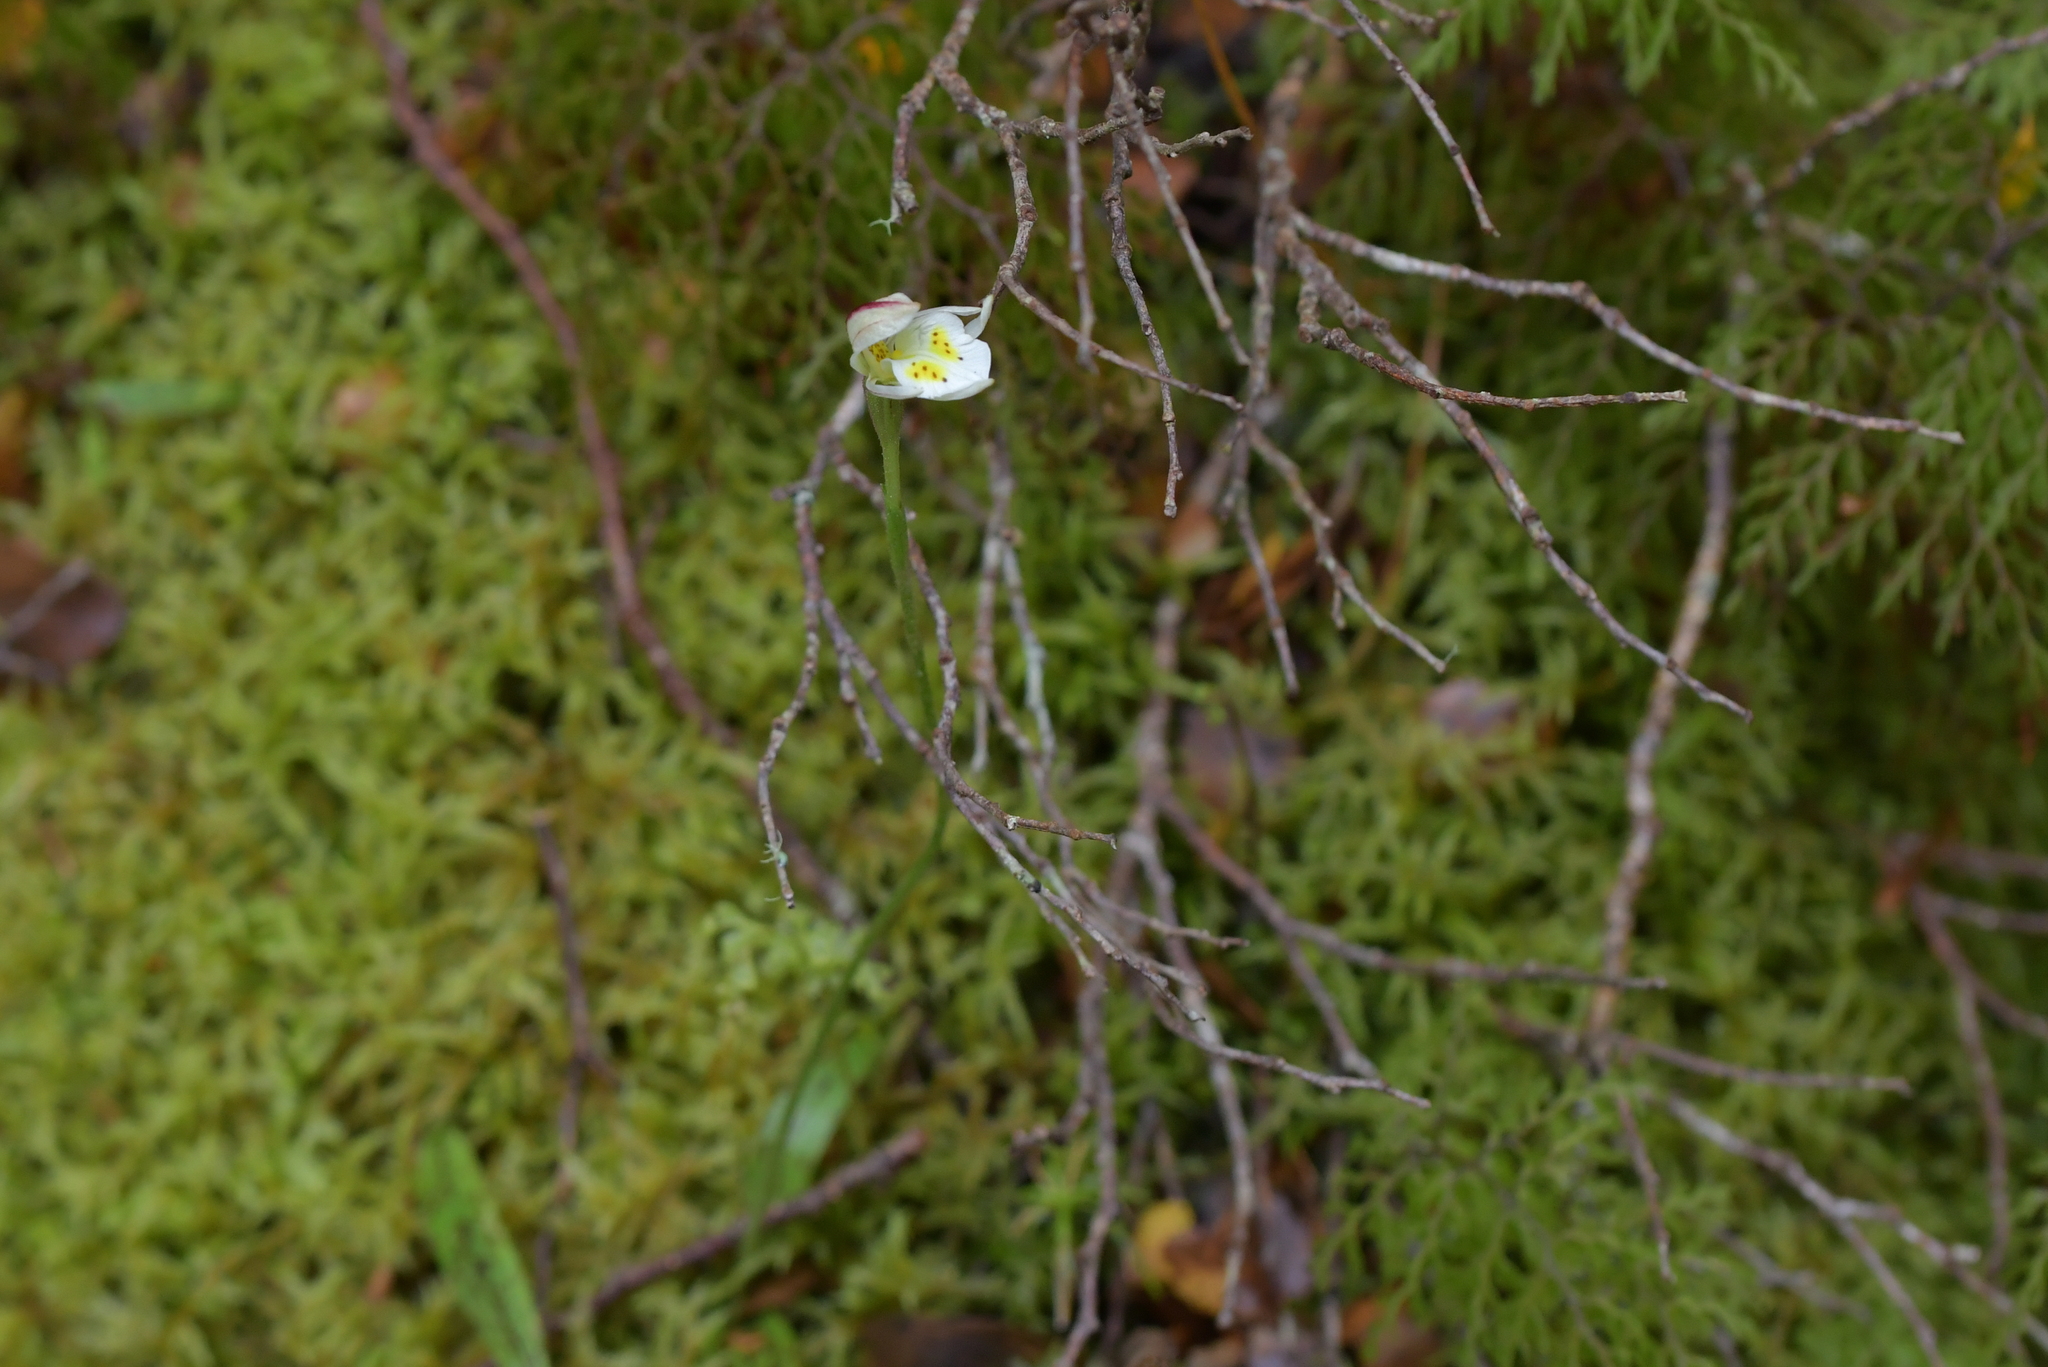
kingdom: Plantae
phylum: Tracheophyta
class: Liliopsida
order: Asparagales
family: Orchidaceae
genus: Aporostylis
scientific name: Aporostylis bifolia
